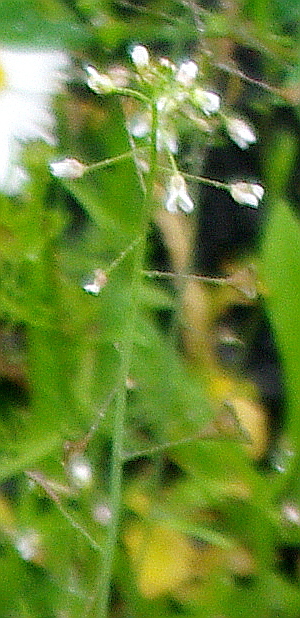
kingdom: Plantae
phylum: Tracheophyta
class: Magnoliopsida
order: Brassicales
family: Brassicaceae
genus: Capsella
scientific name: Capsella bursa-pastoris
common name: Shepherd's purse
